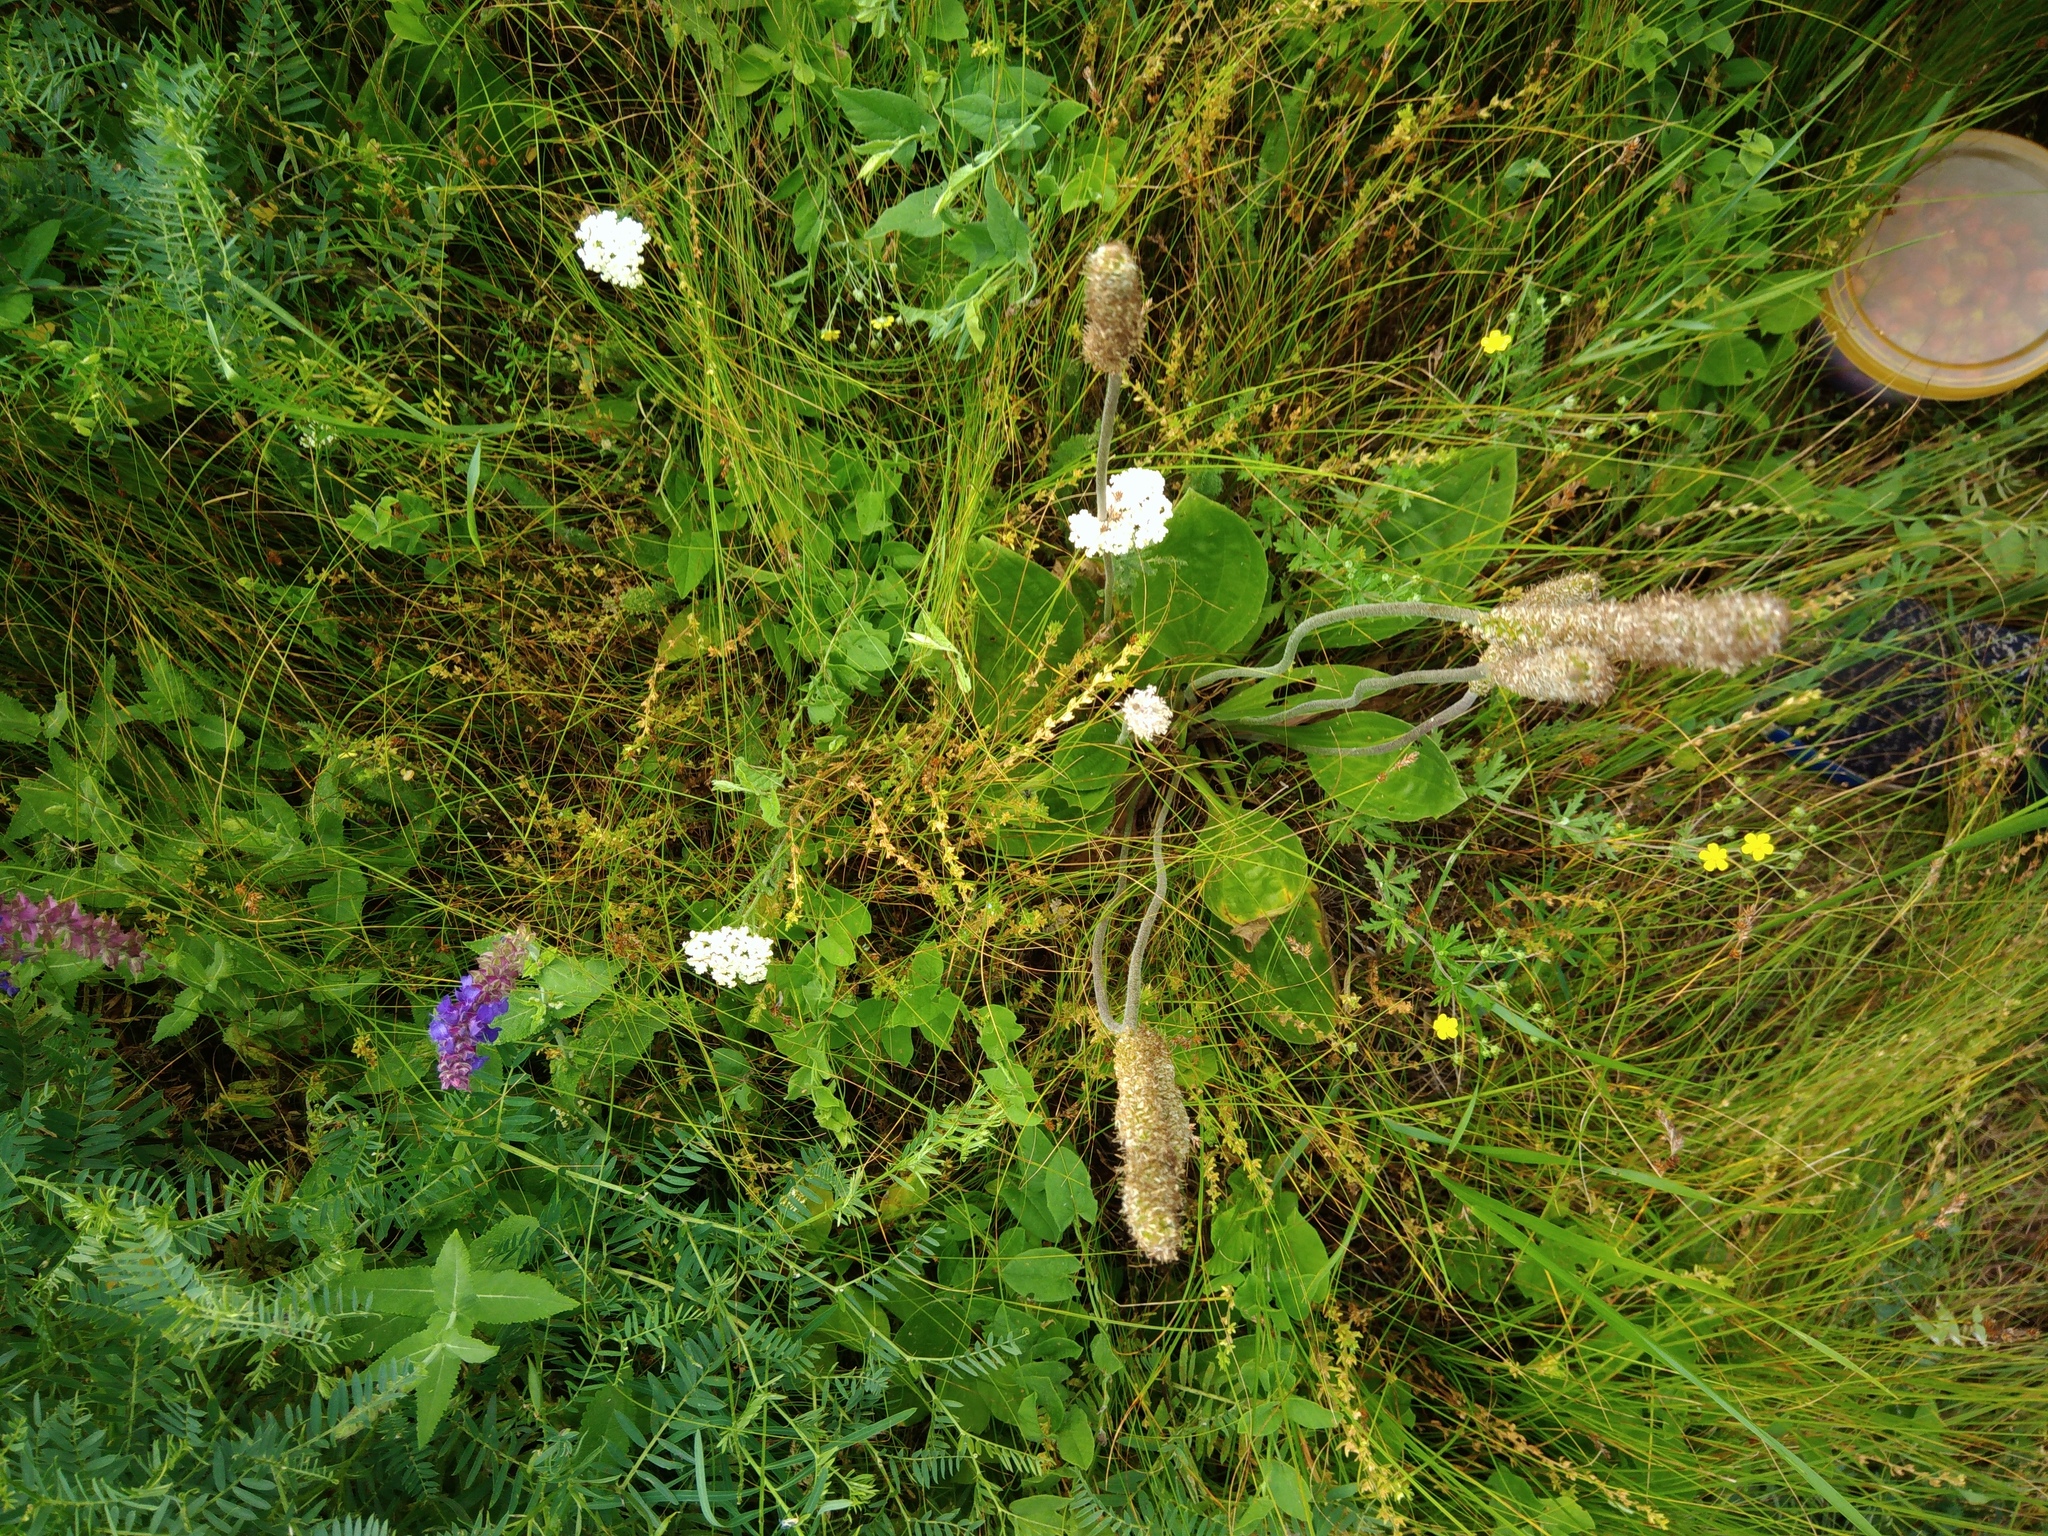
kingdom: Plantae
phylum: Tracheophyta
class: Magnoliopsida
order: Lamiales
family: Plantaginaceae
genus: Plantago
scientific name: Plantago media
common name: Hoary plantain
